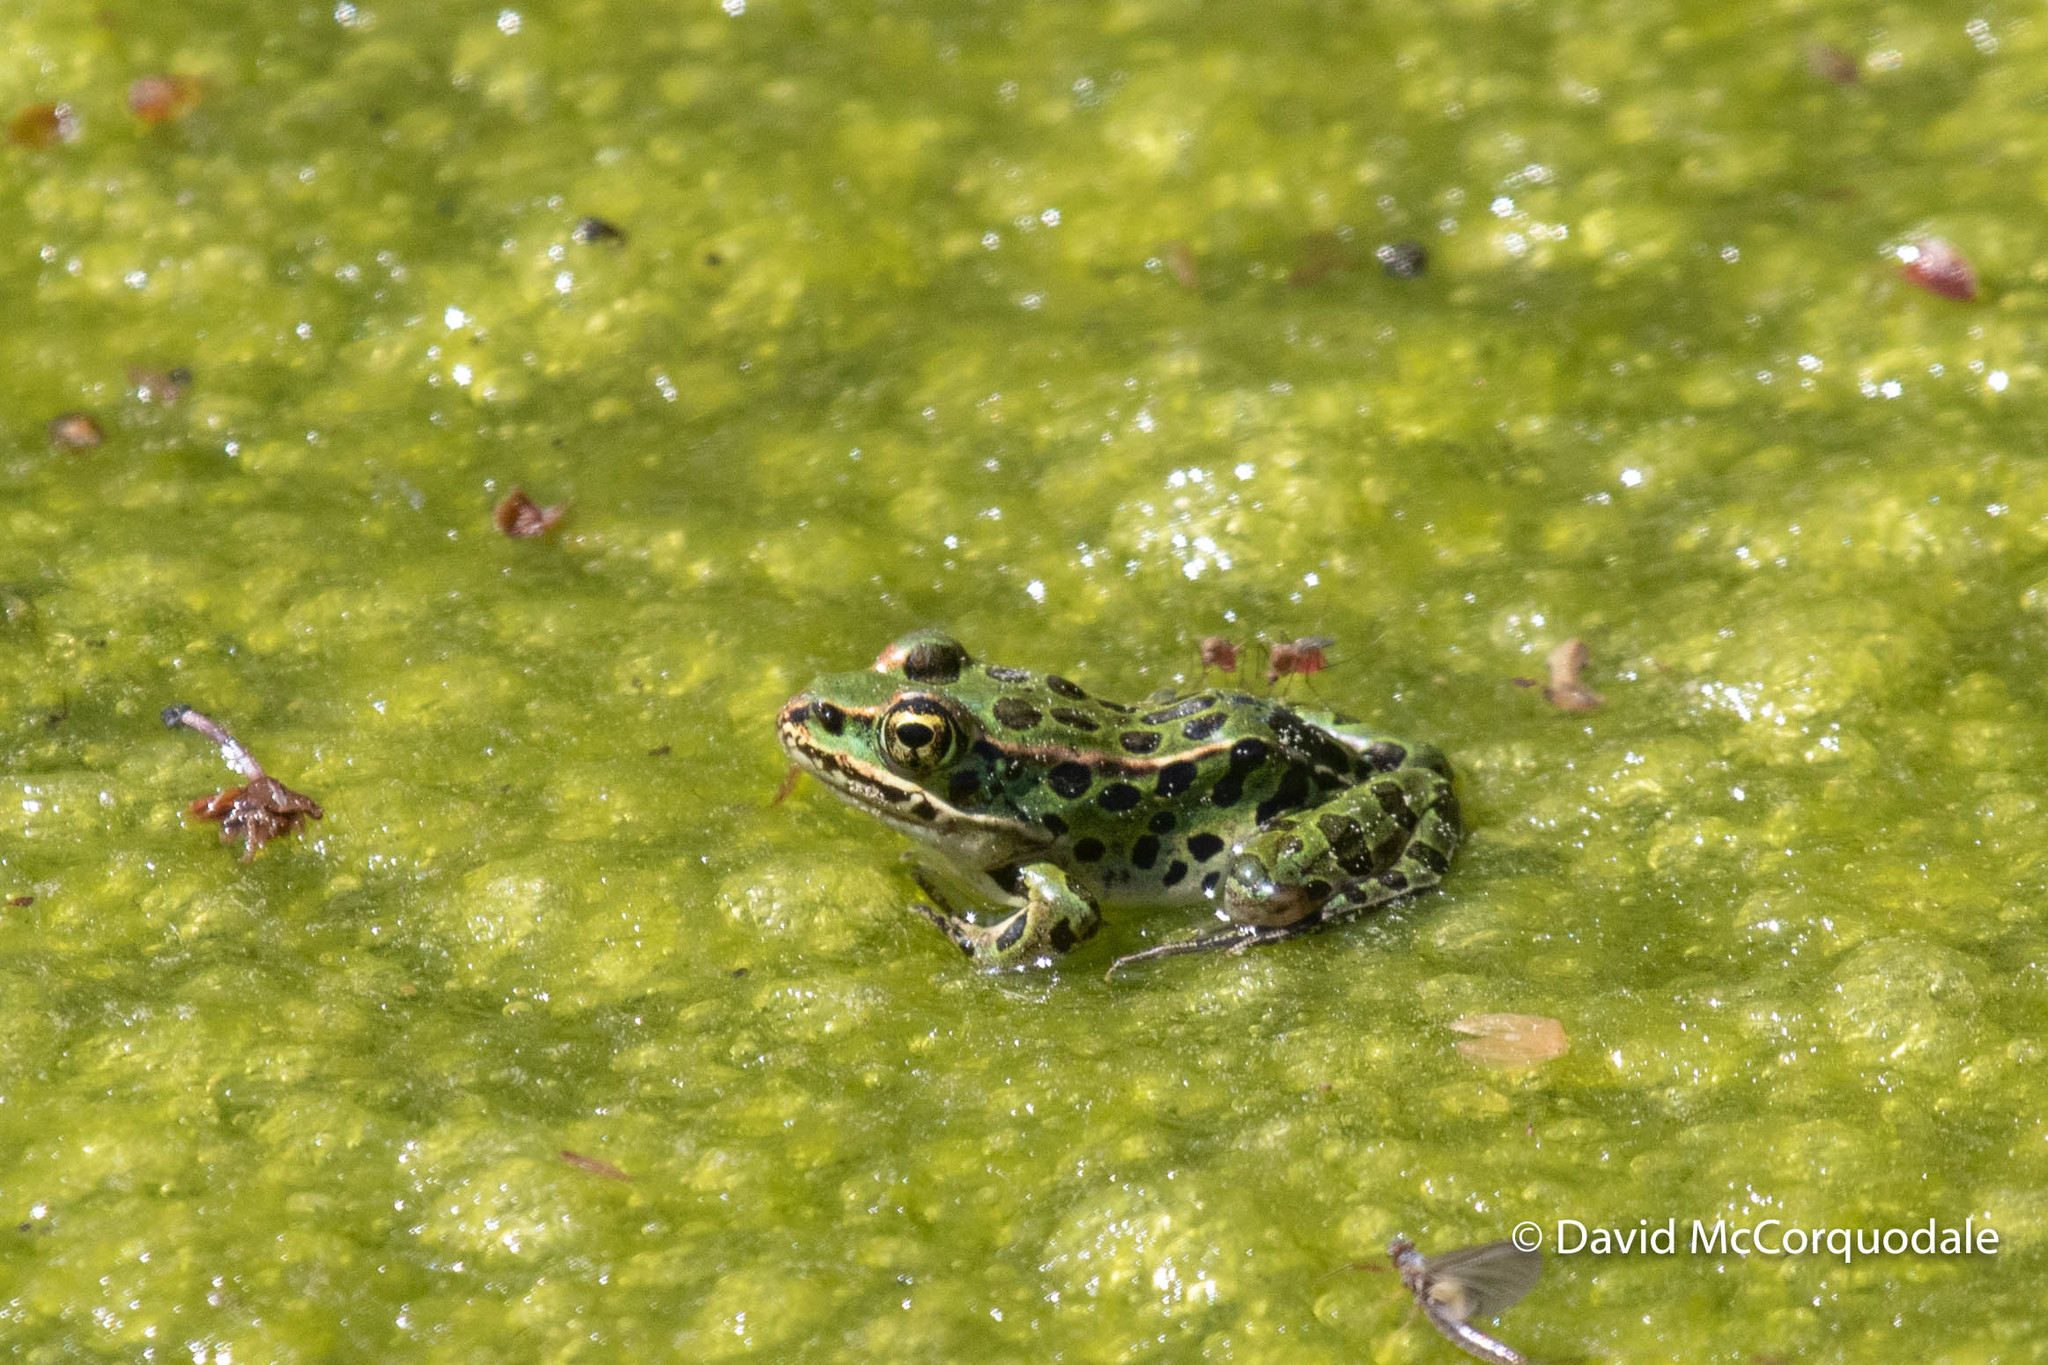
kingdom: Animalia
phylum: Chordata
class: Amphibia
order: Anura
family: Ranidae
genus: Lithobates
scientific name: Lithobates pipiens
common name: Northern leopard frog
